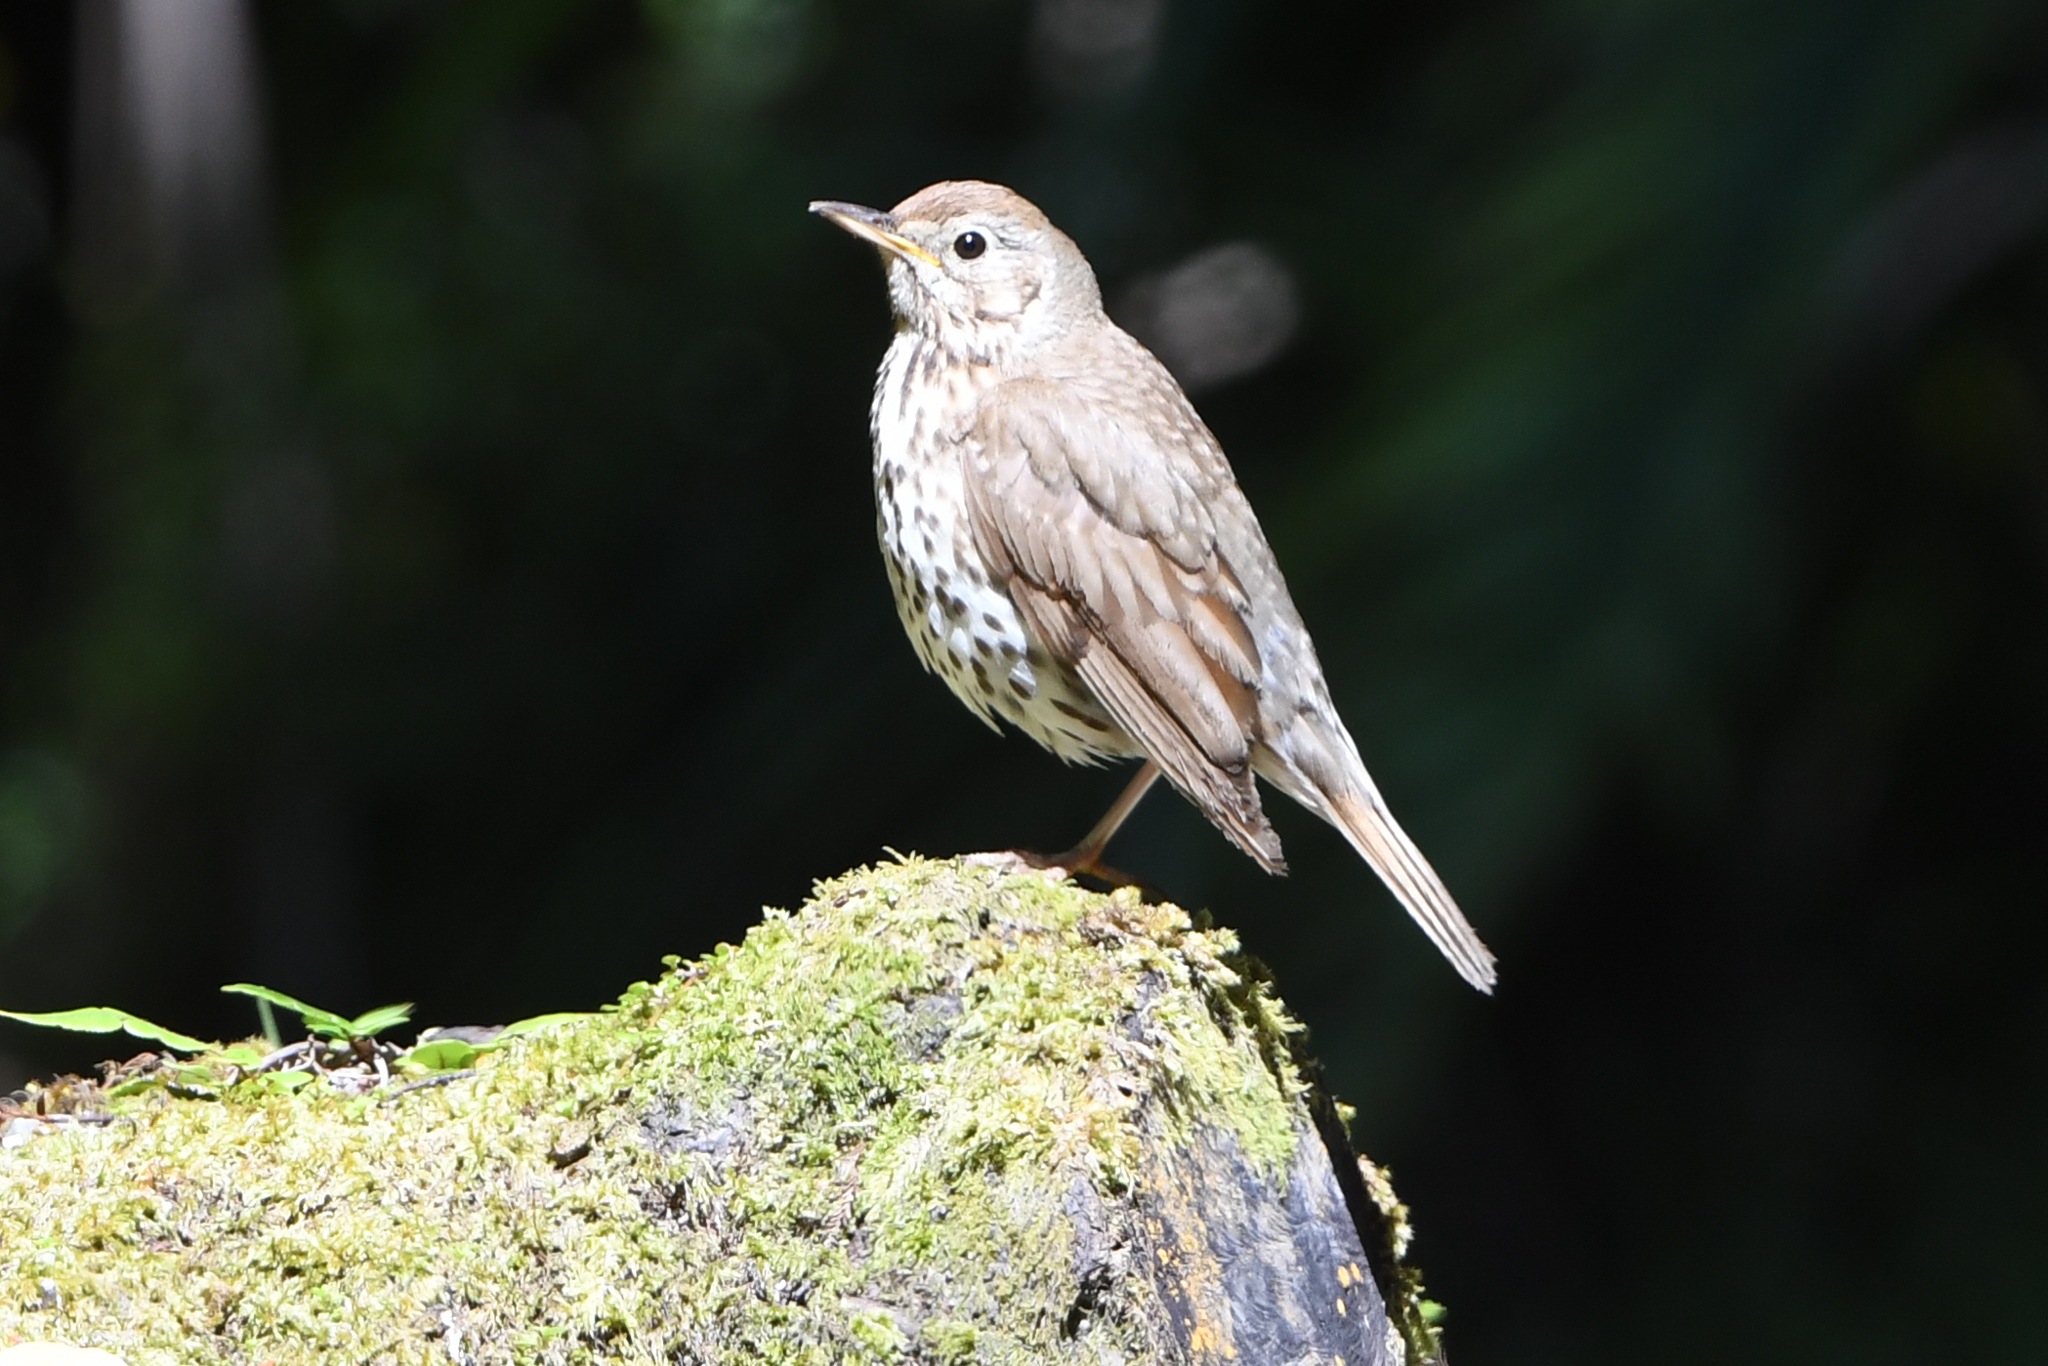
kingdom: Animalia
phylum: Chordata
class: Aves
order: Passeriformes
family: Turdidae
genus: Turdus
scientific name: Turdus philomelos
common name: Song thrush
